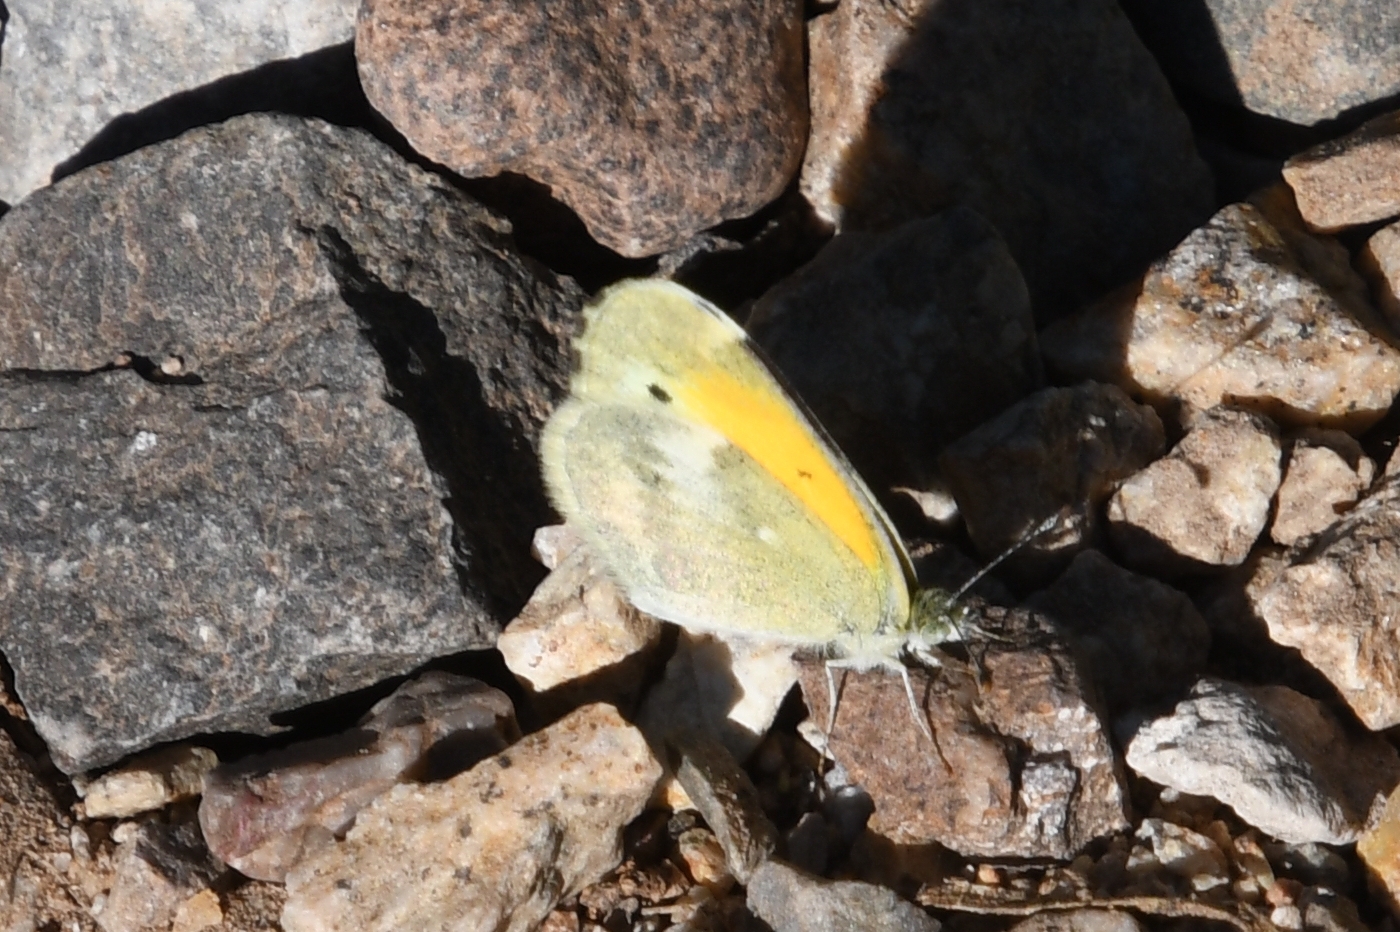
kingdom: Animalia
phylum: Arthropoda
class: Insecta
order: Lepidoptera
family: Pieridae
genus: Nathalis
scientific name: Nathalis iole
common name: Dainty sulphur
